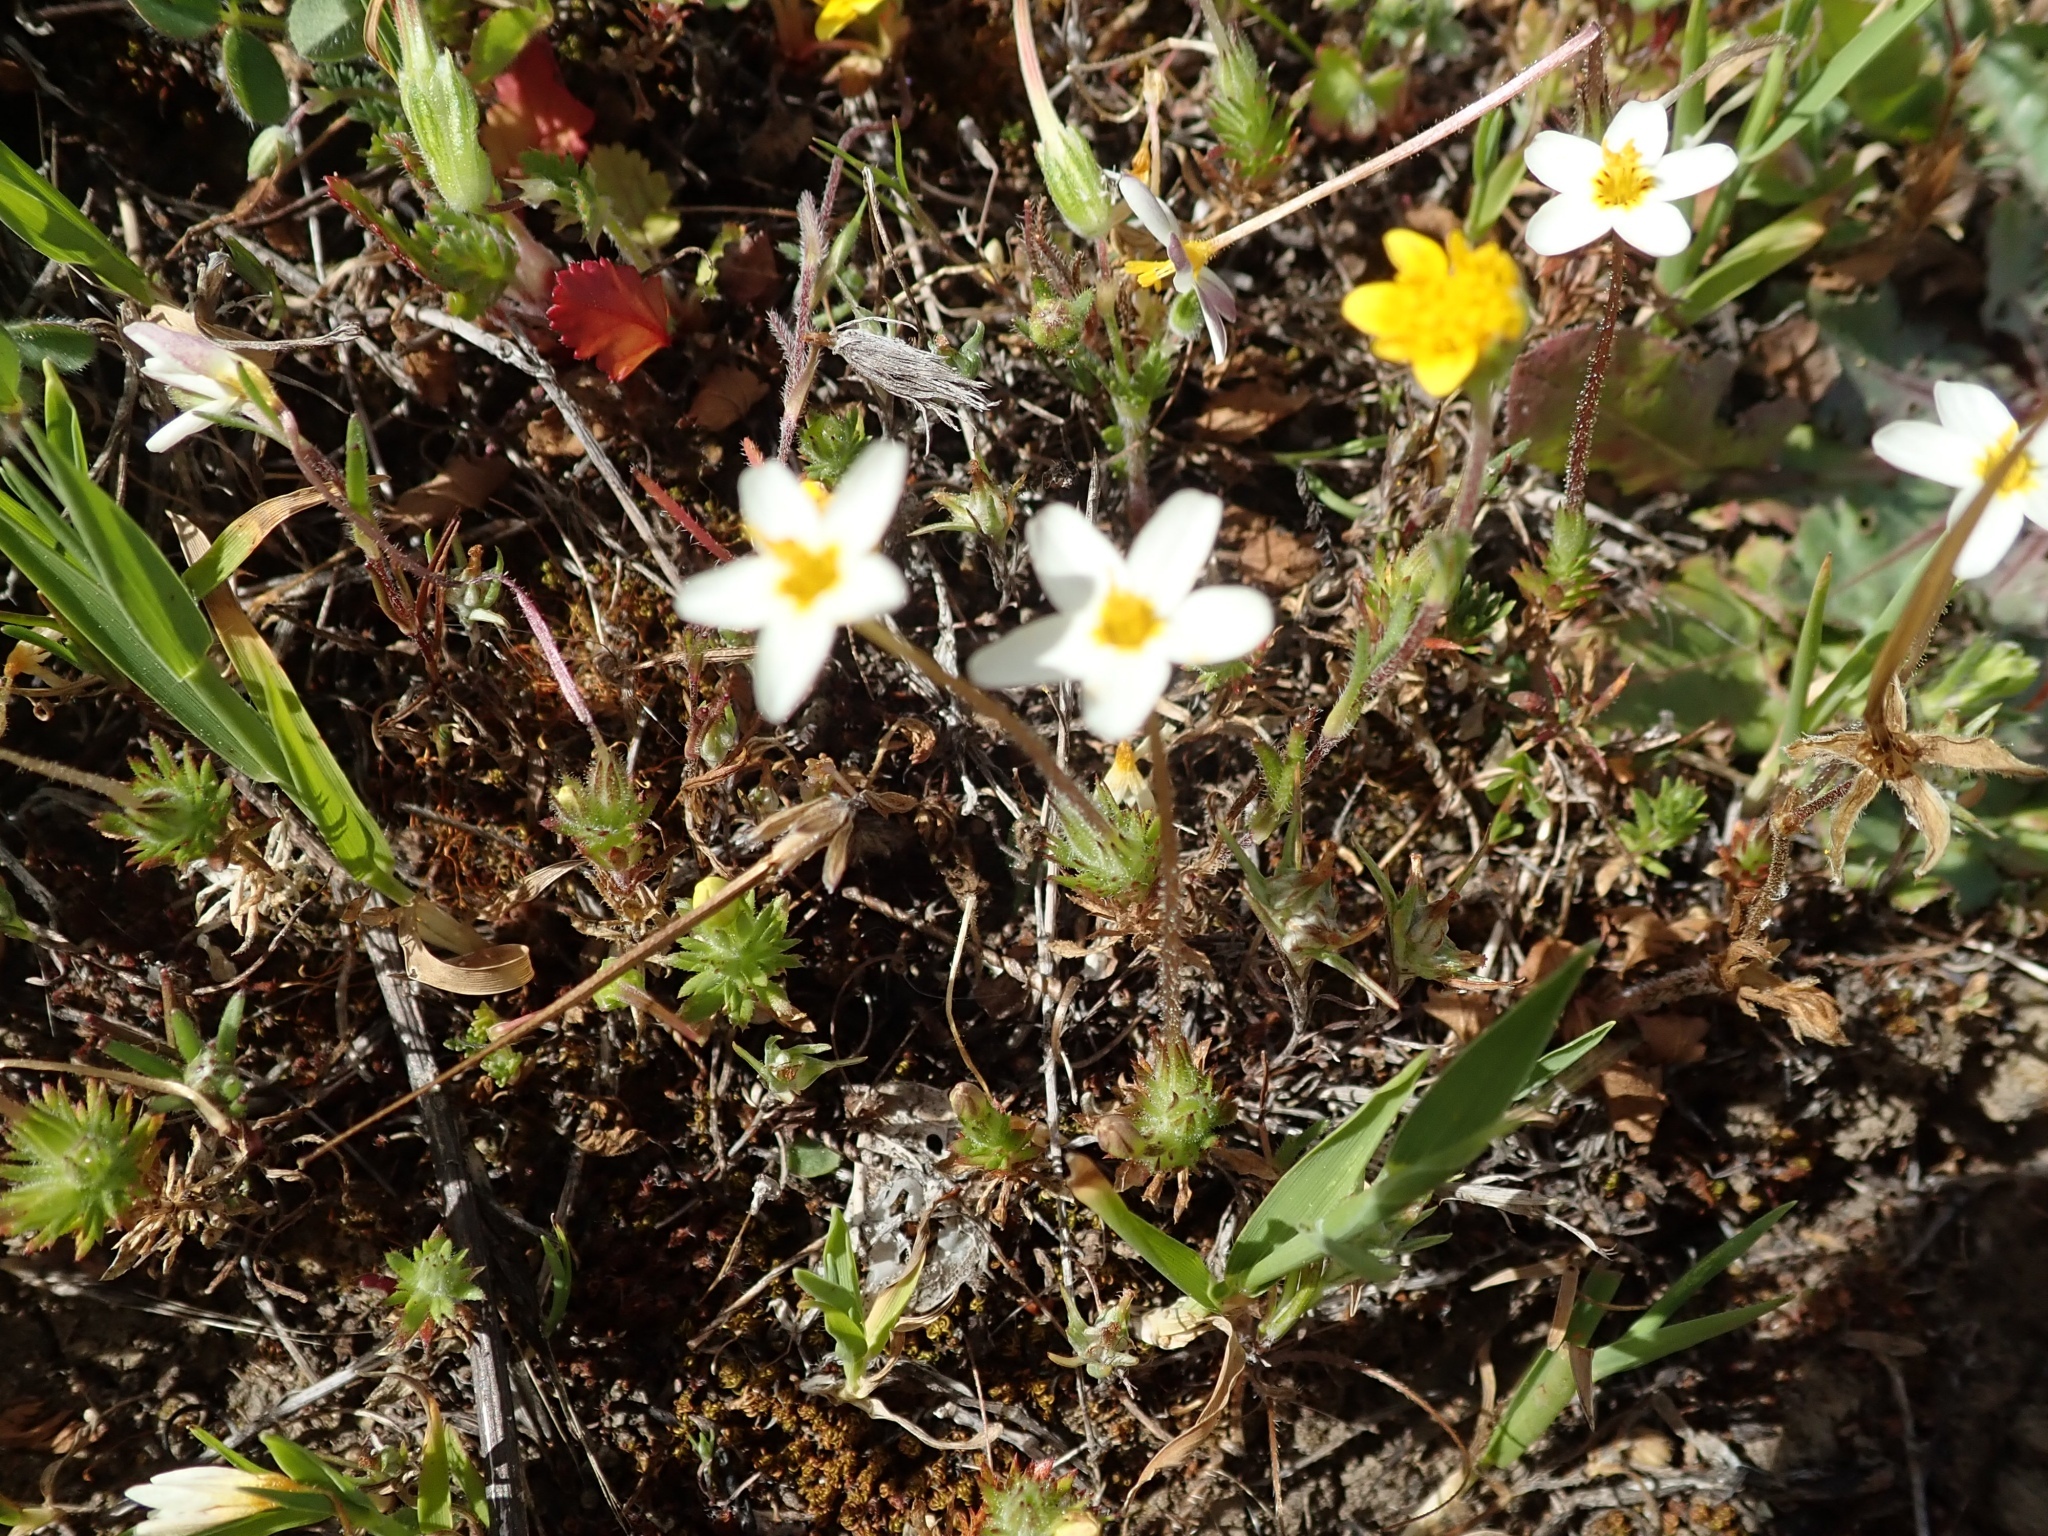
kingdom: Plantae
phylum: Tracheophyta
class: Magnoliopsida
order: Ericales
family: Polemoniaceae
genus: Leptosiphon
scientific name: Leptosiphon parviflorus
